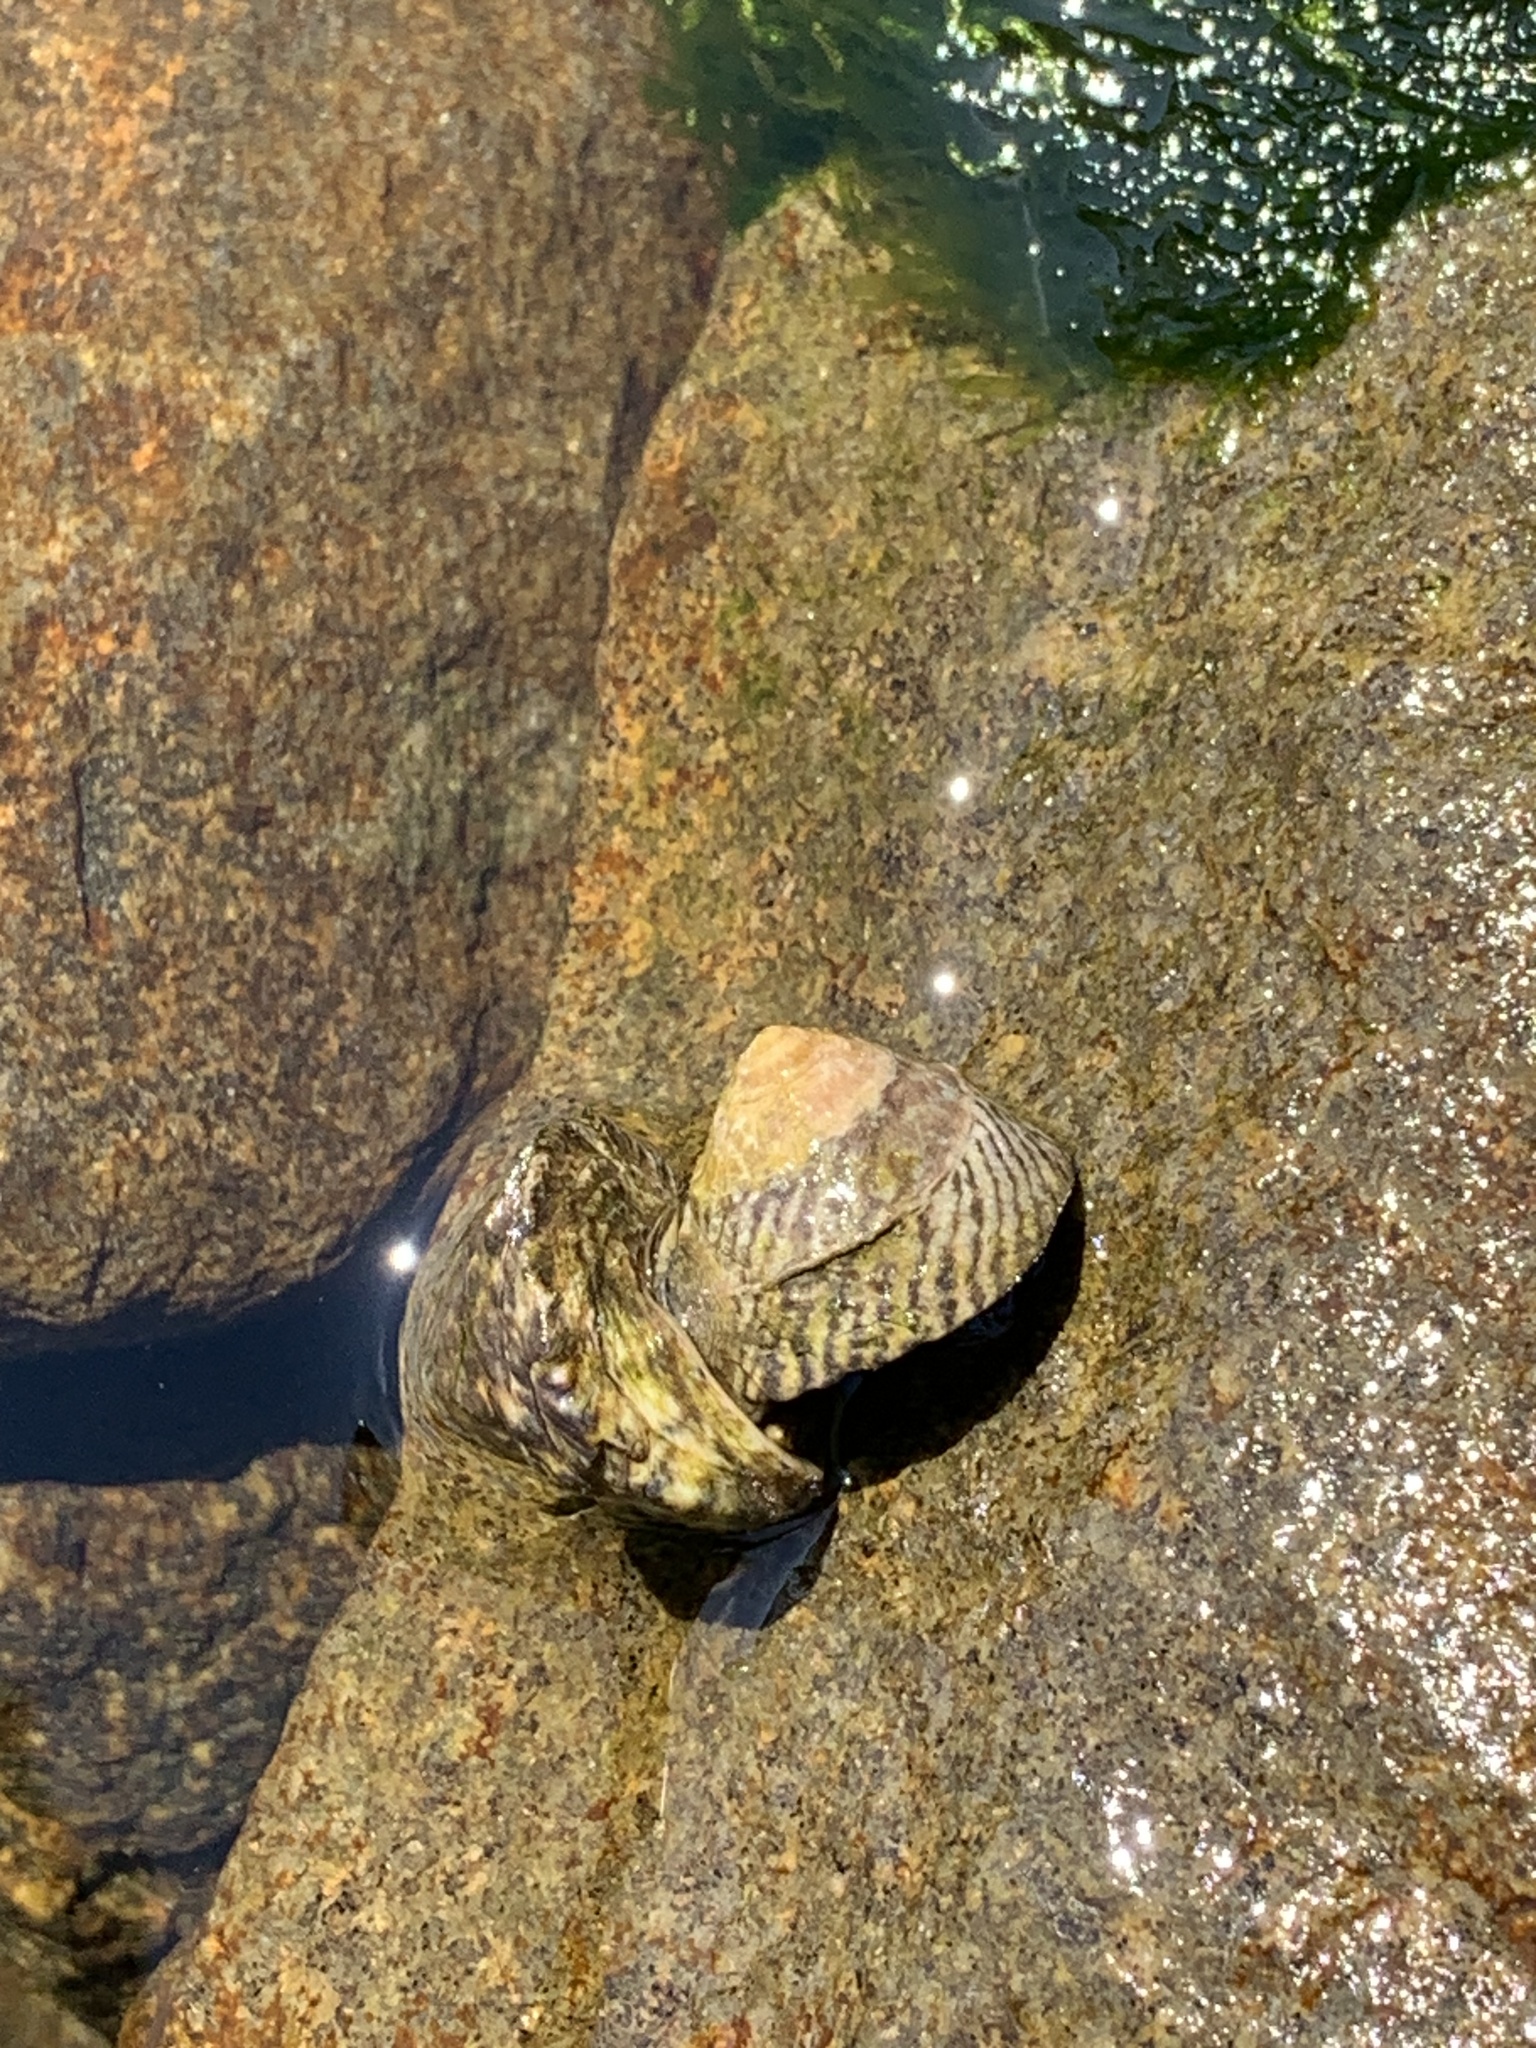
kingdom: Animalia
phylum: Mollusca
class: Gastropoda
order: Littorinimorpha
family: Littorinidae
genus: Bembicium
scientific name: Bembicium nanum
